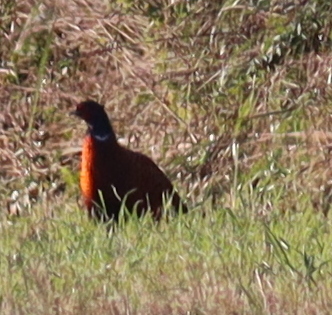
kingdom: Animalia
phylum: Chordata
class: Aves
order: Galliformes
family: Phasianidae
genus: Phasianus
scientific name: Phasianus colchicus
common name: Common pheasant
